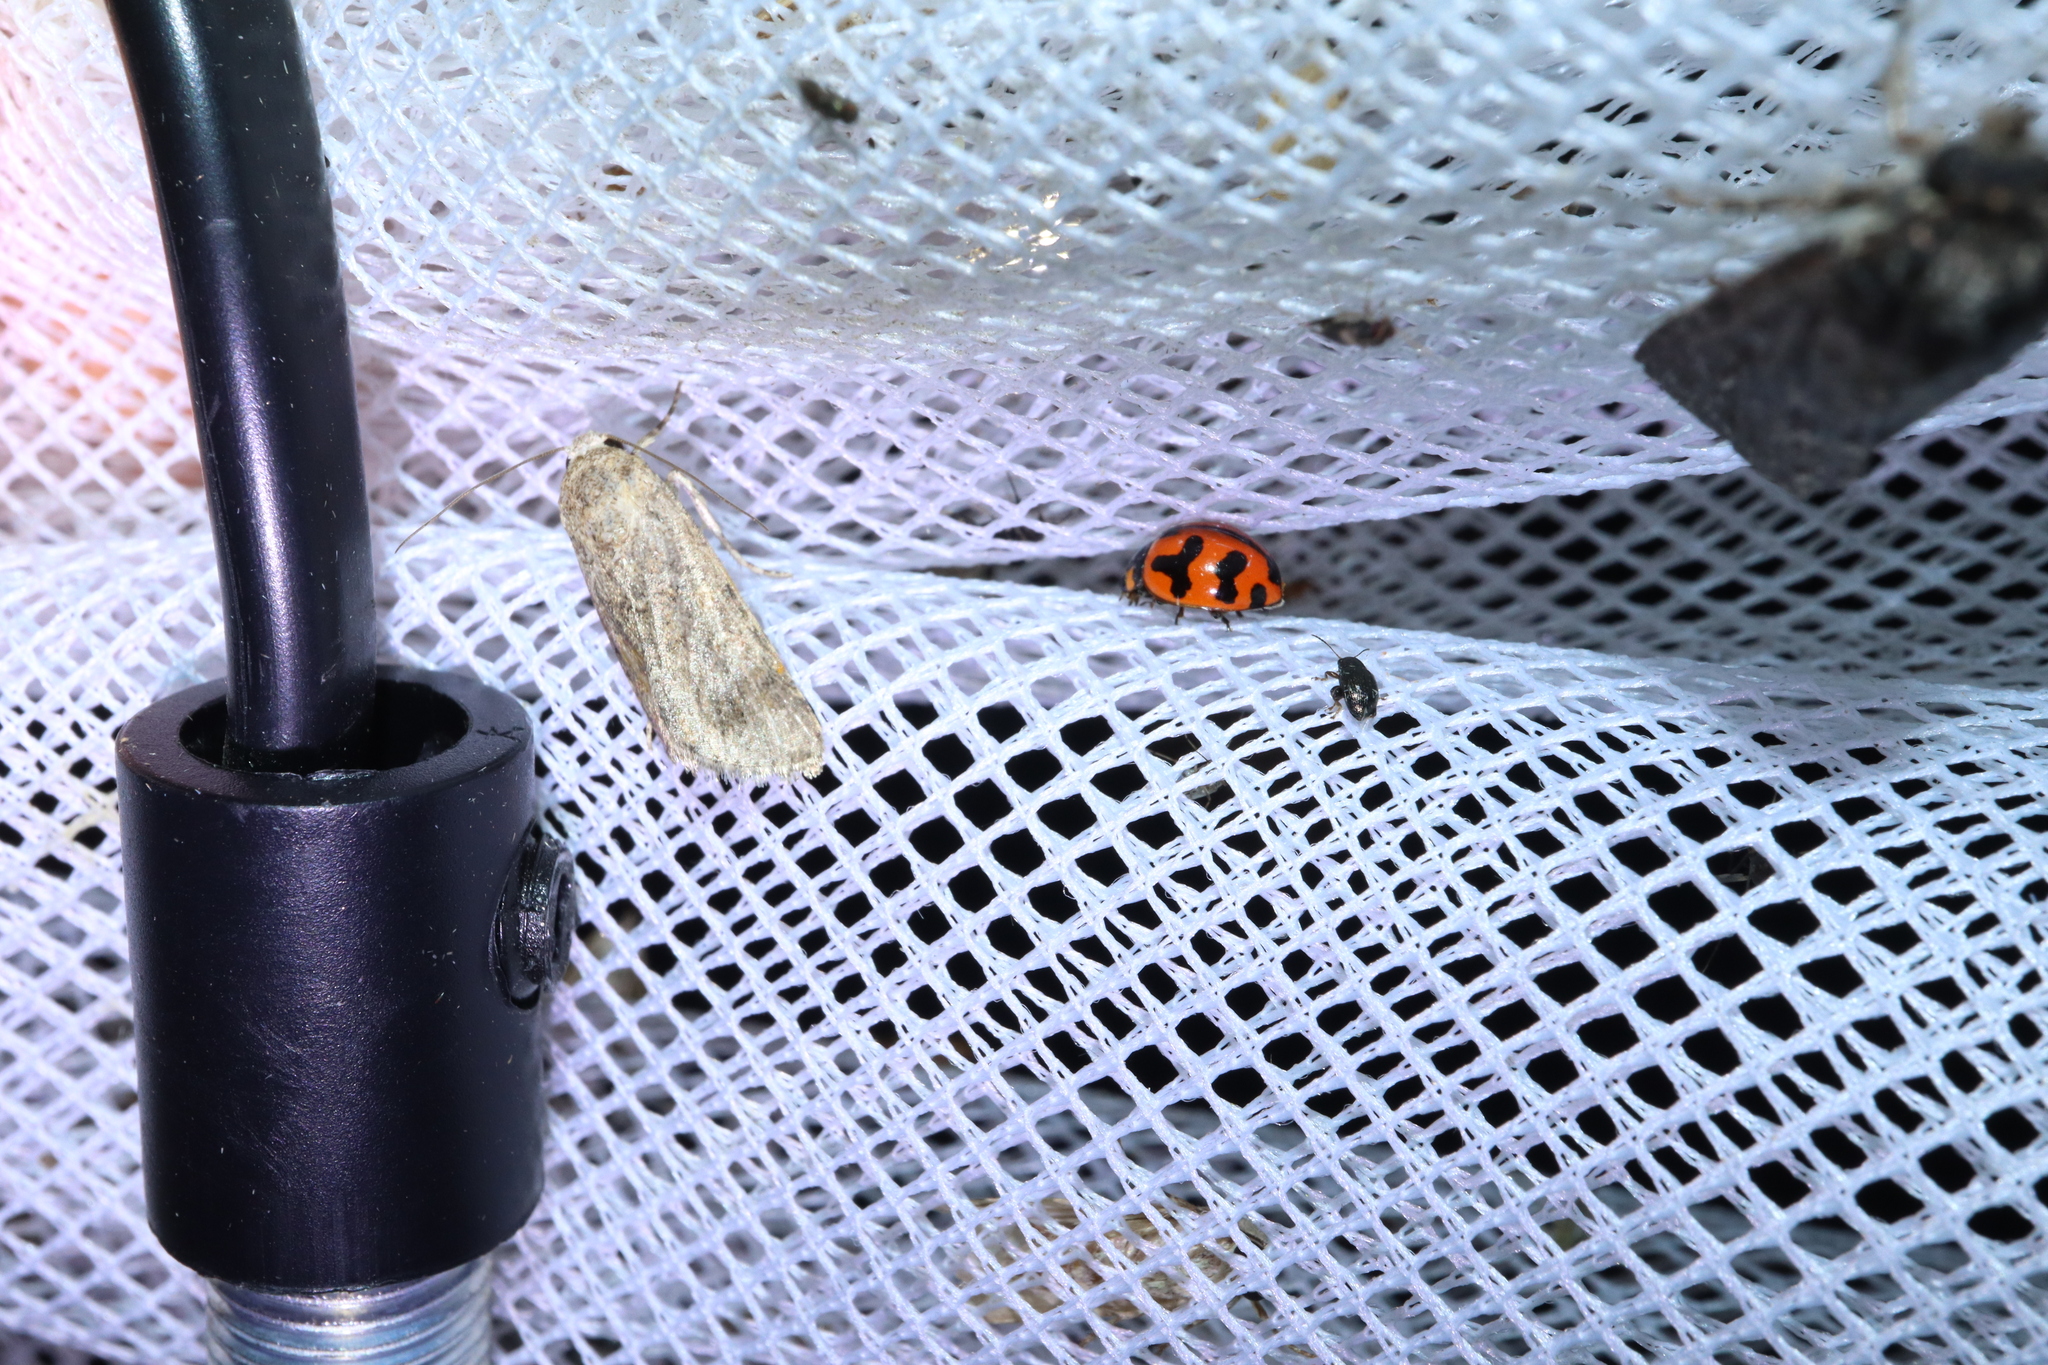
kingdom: Animalia
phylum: Arthropoda
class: Insecta
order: Coleoptera
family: Coccinellidae
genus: Coccinella
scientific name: Coccinella transversalis
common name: Transverse lady beetle
